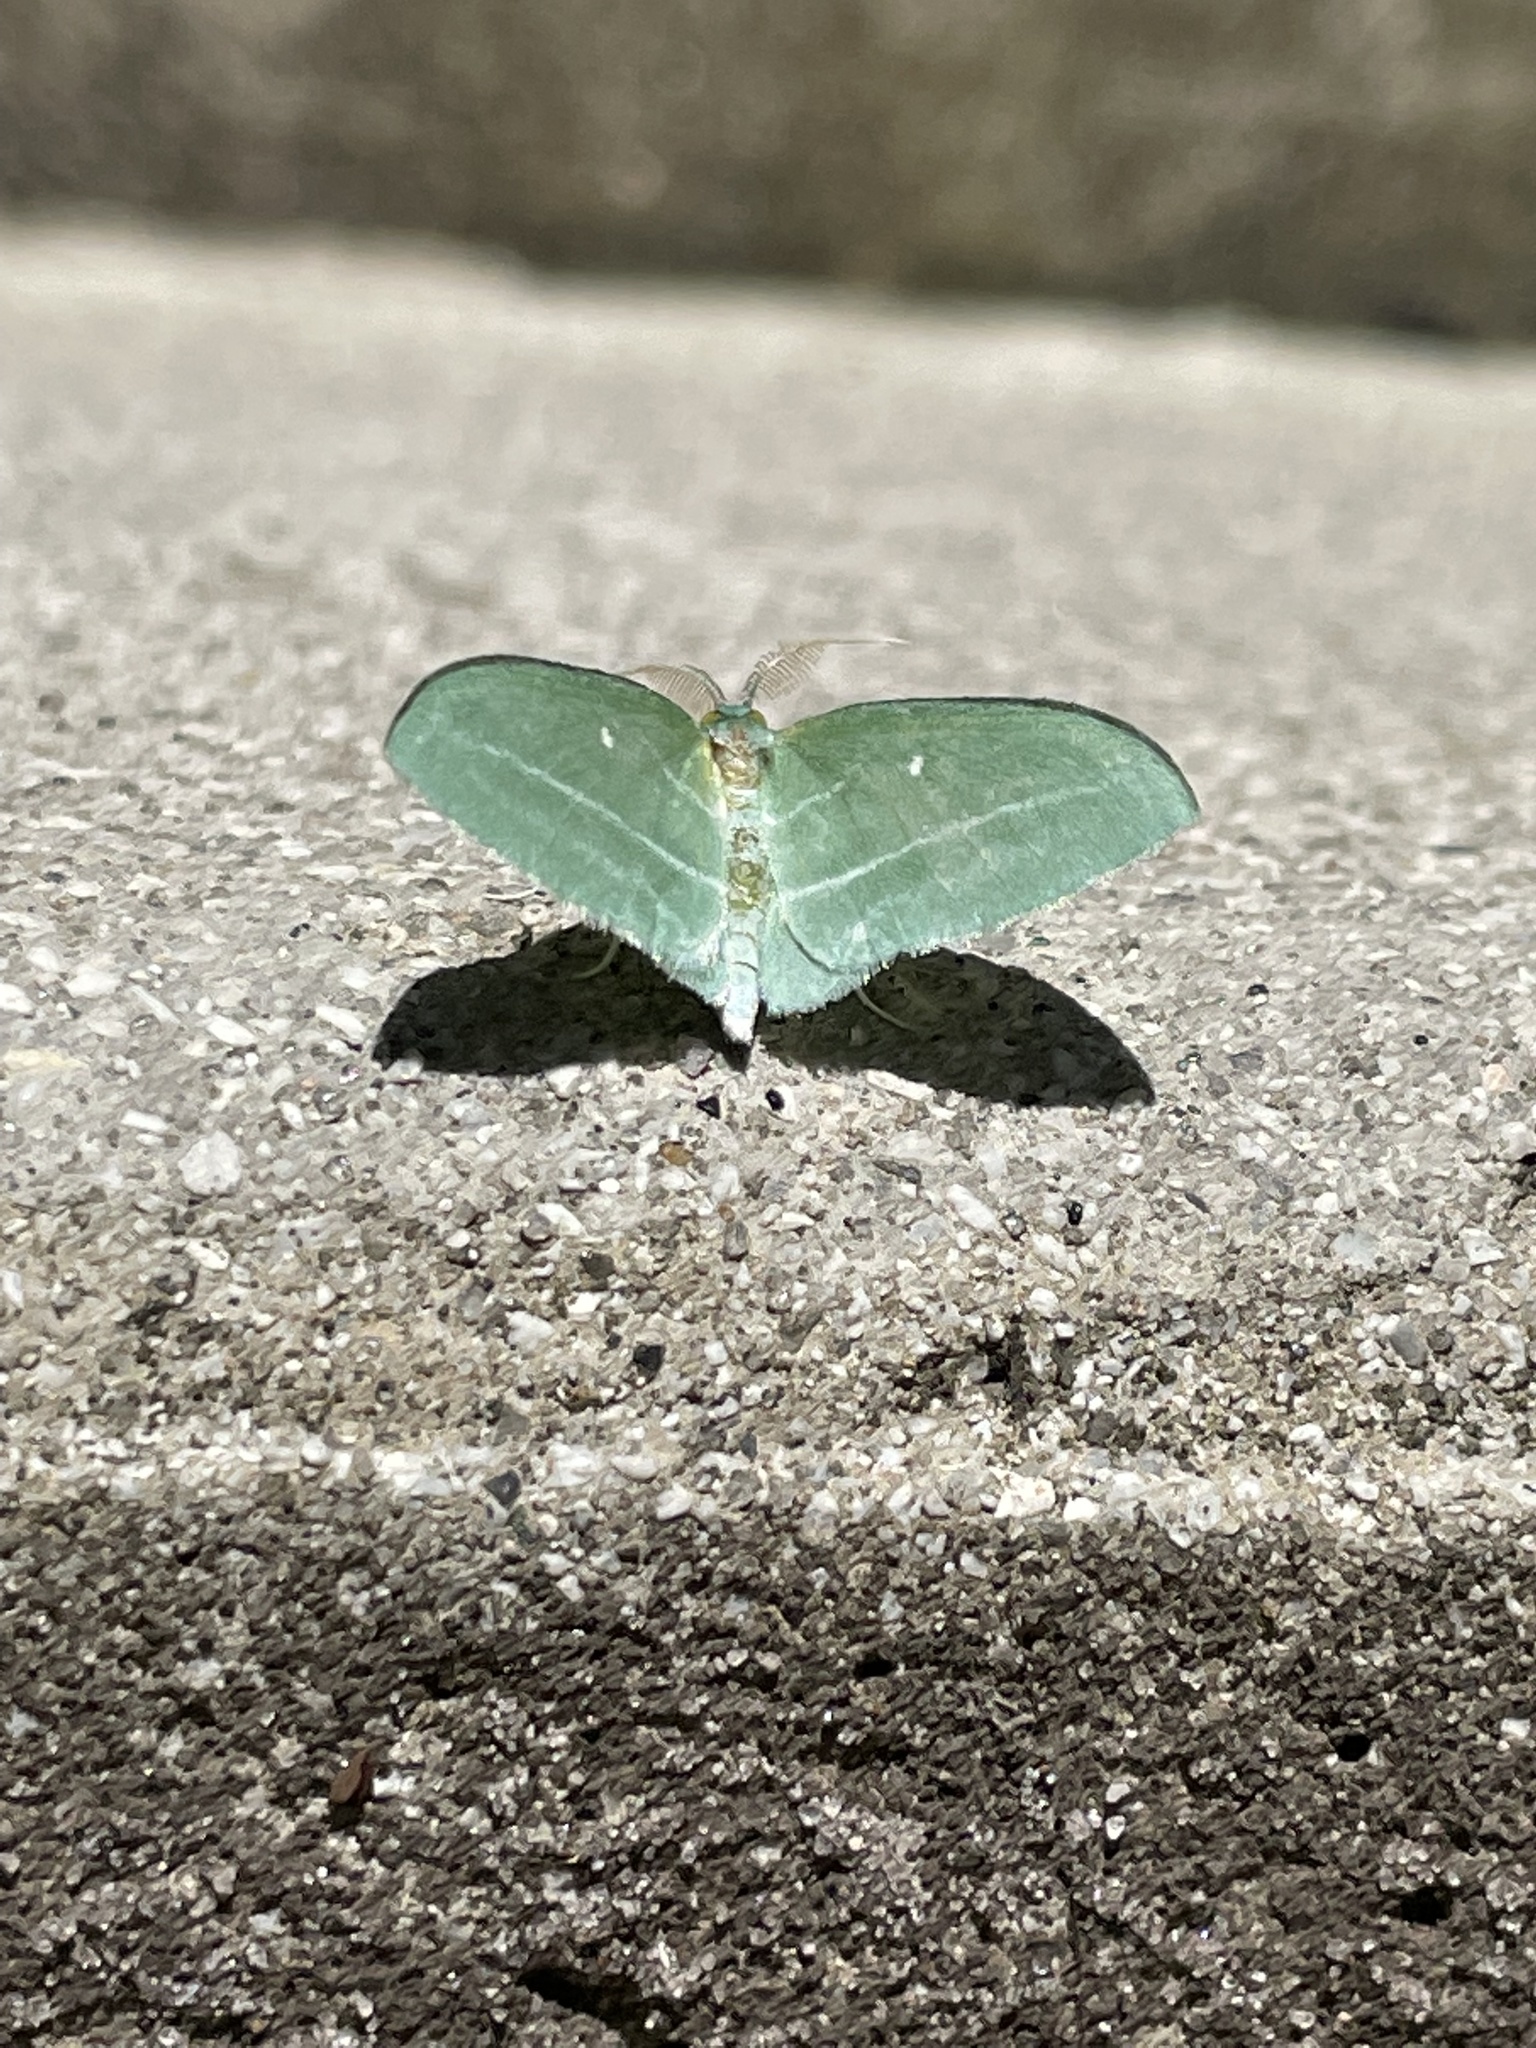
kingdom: Animalia
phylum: Arthropoda
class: Insecta
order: Lepidoptera
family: Geometridae
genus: Dyspteris
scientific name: Dyspteris abortivaria
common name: Bad-wing
